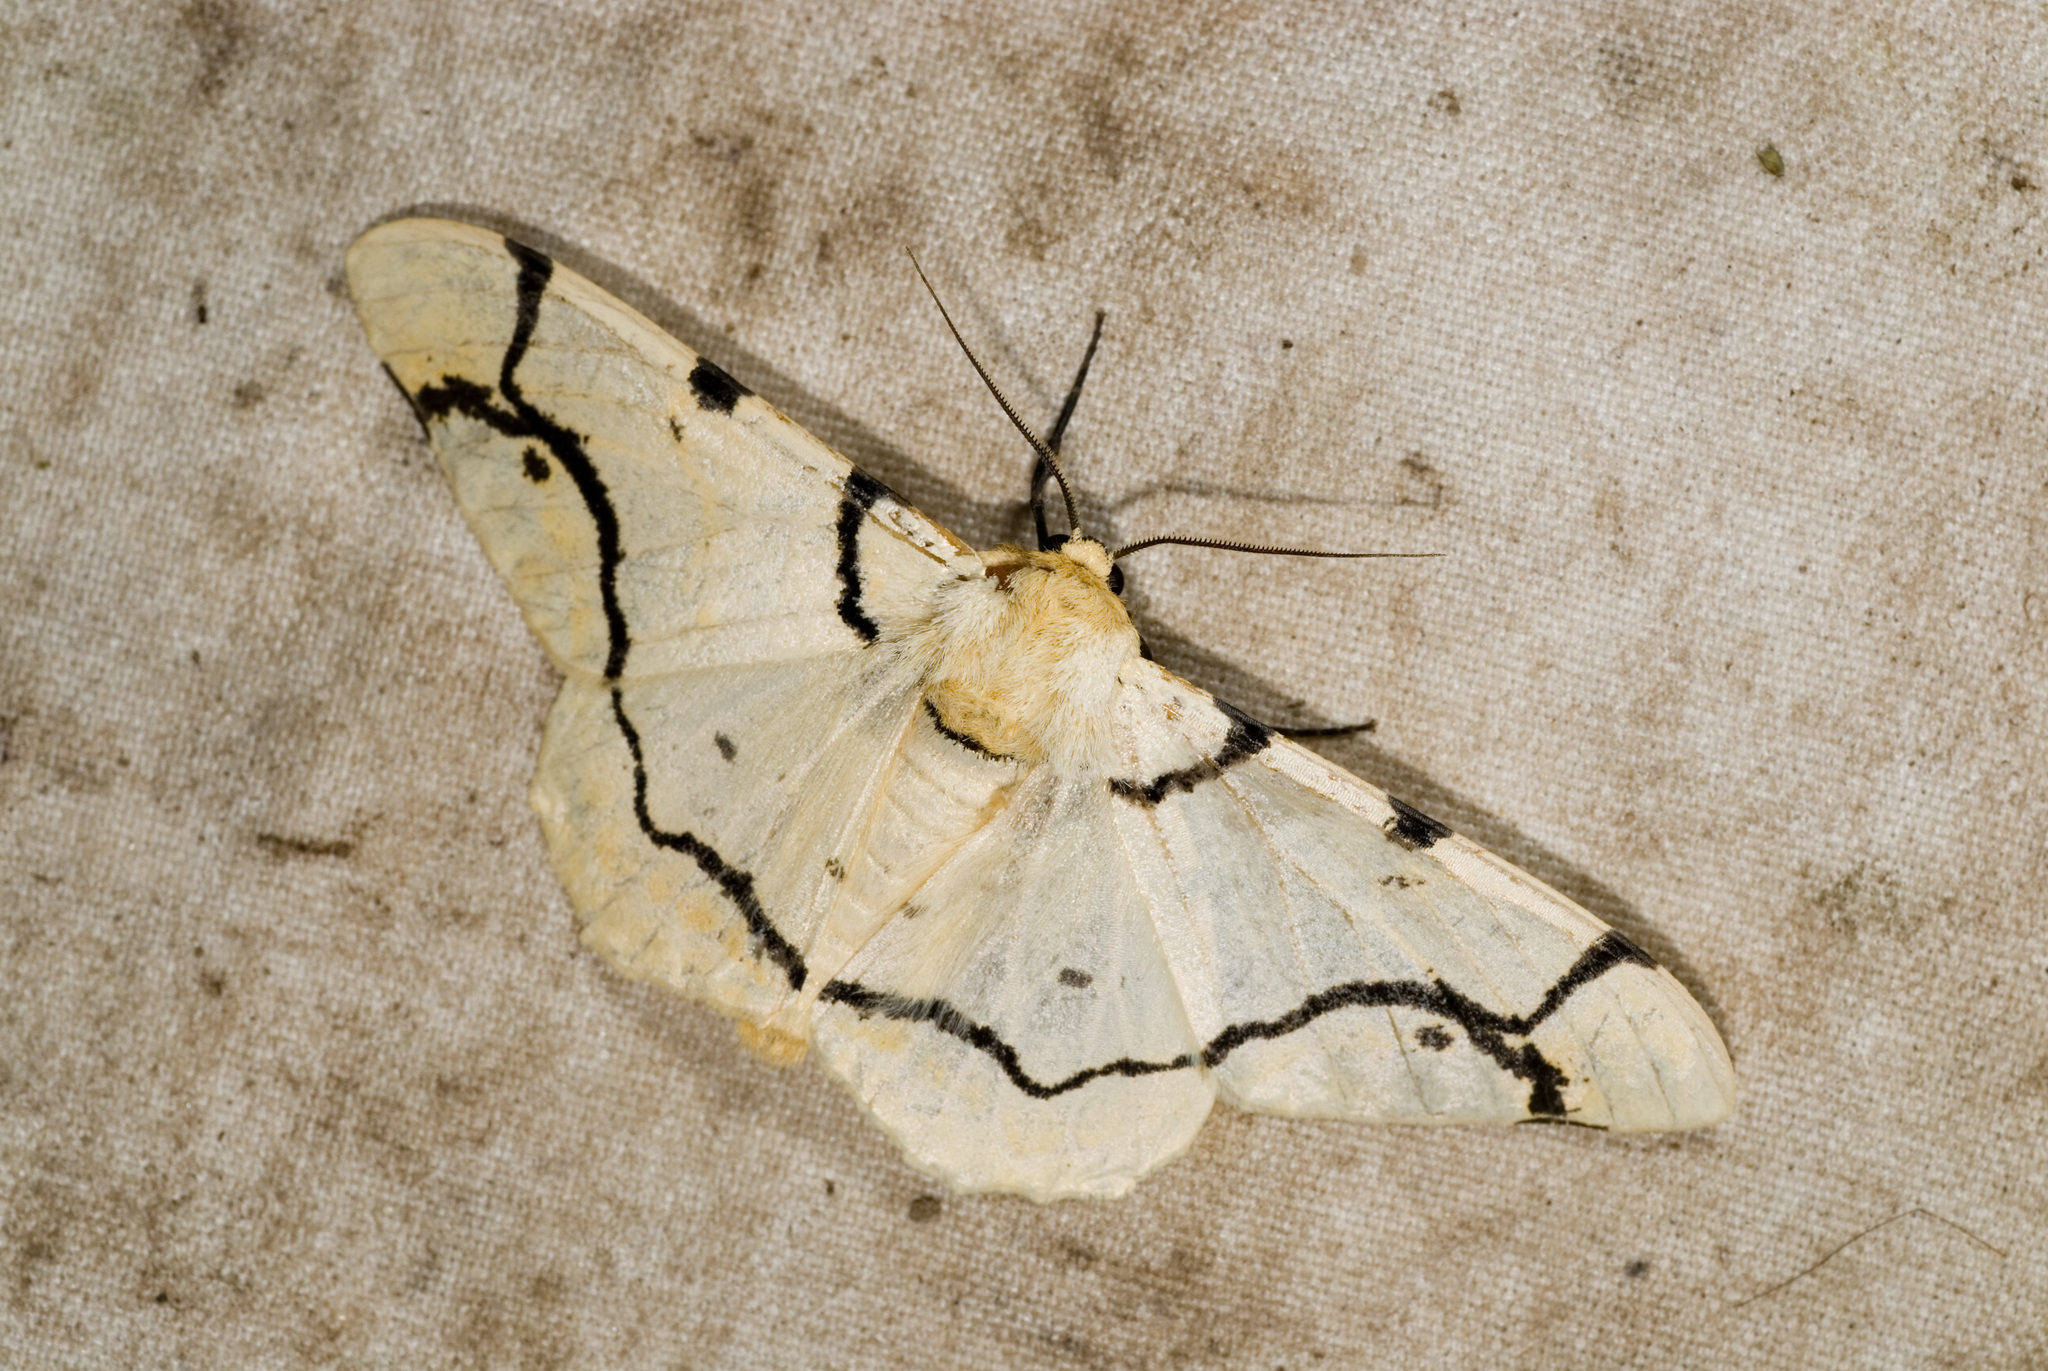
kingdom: Animalia
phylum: Arthropoda
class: Insecta
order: Lepidoptera
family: Geometridae
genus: Biston
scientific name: Biston perclara
